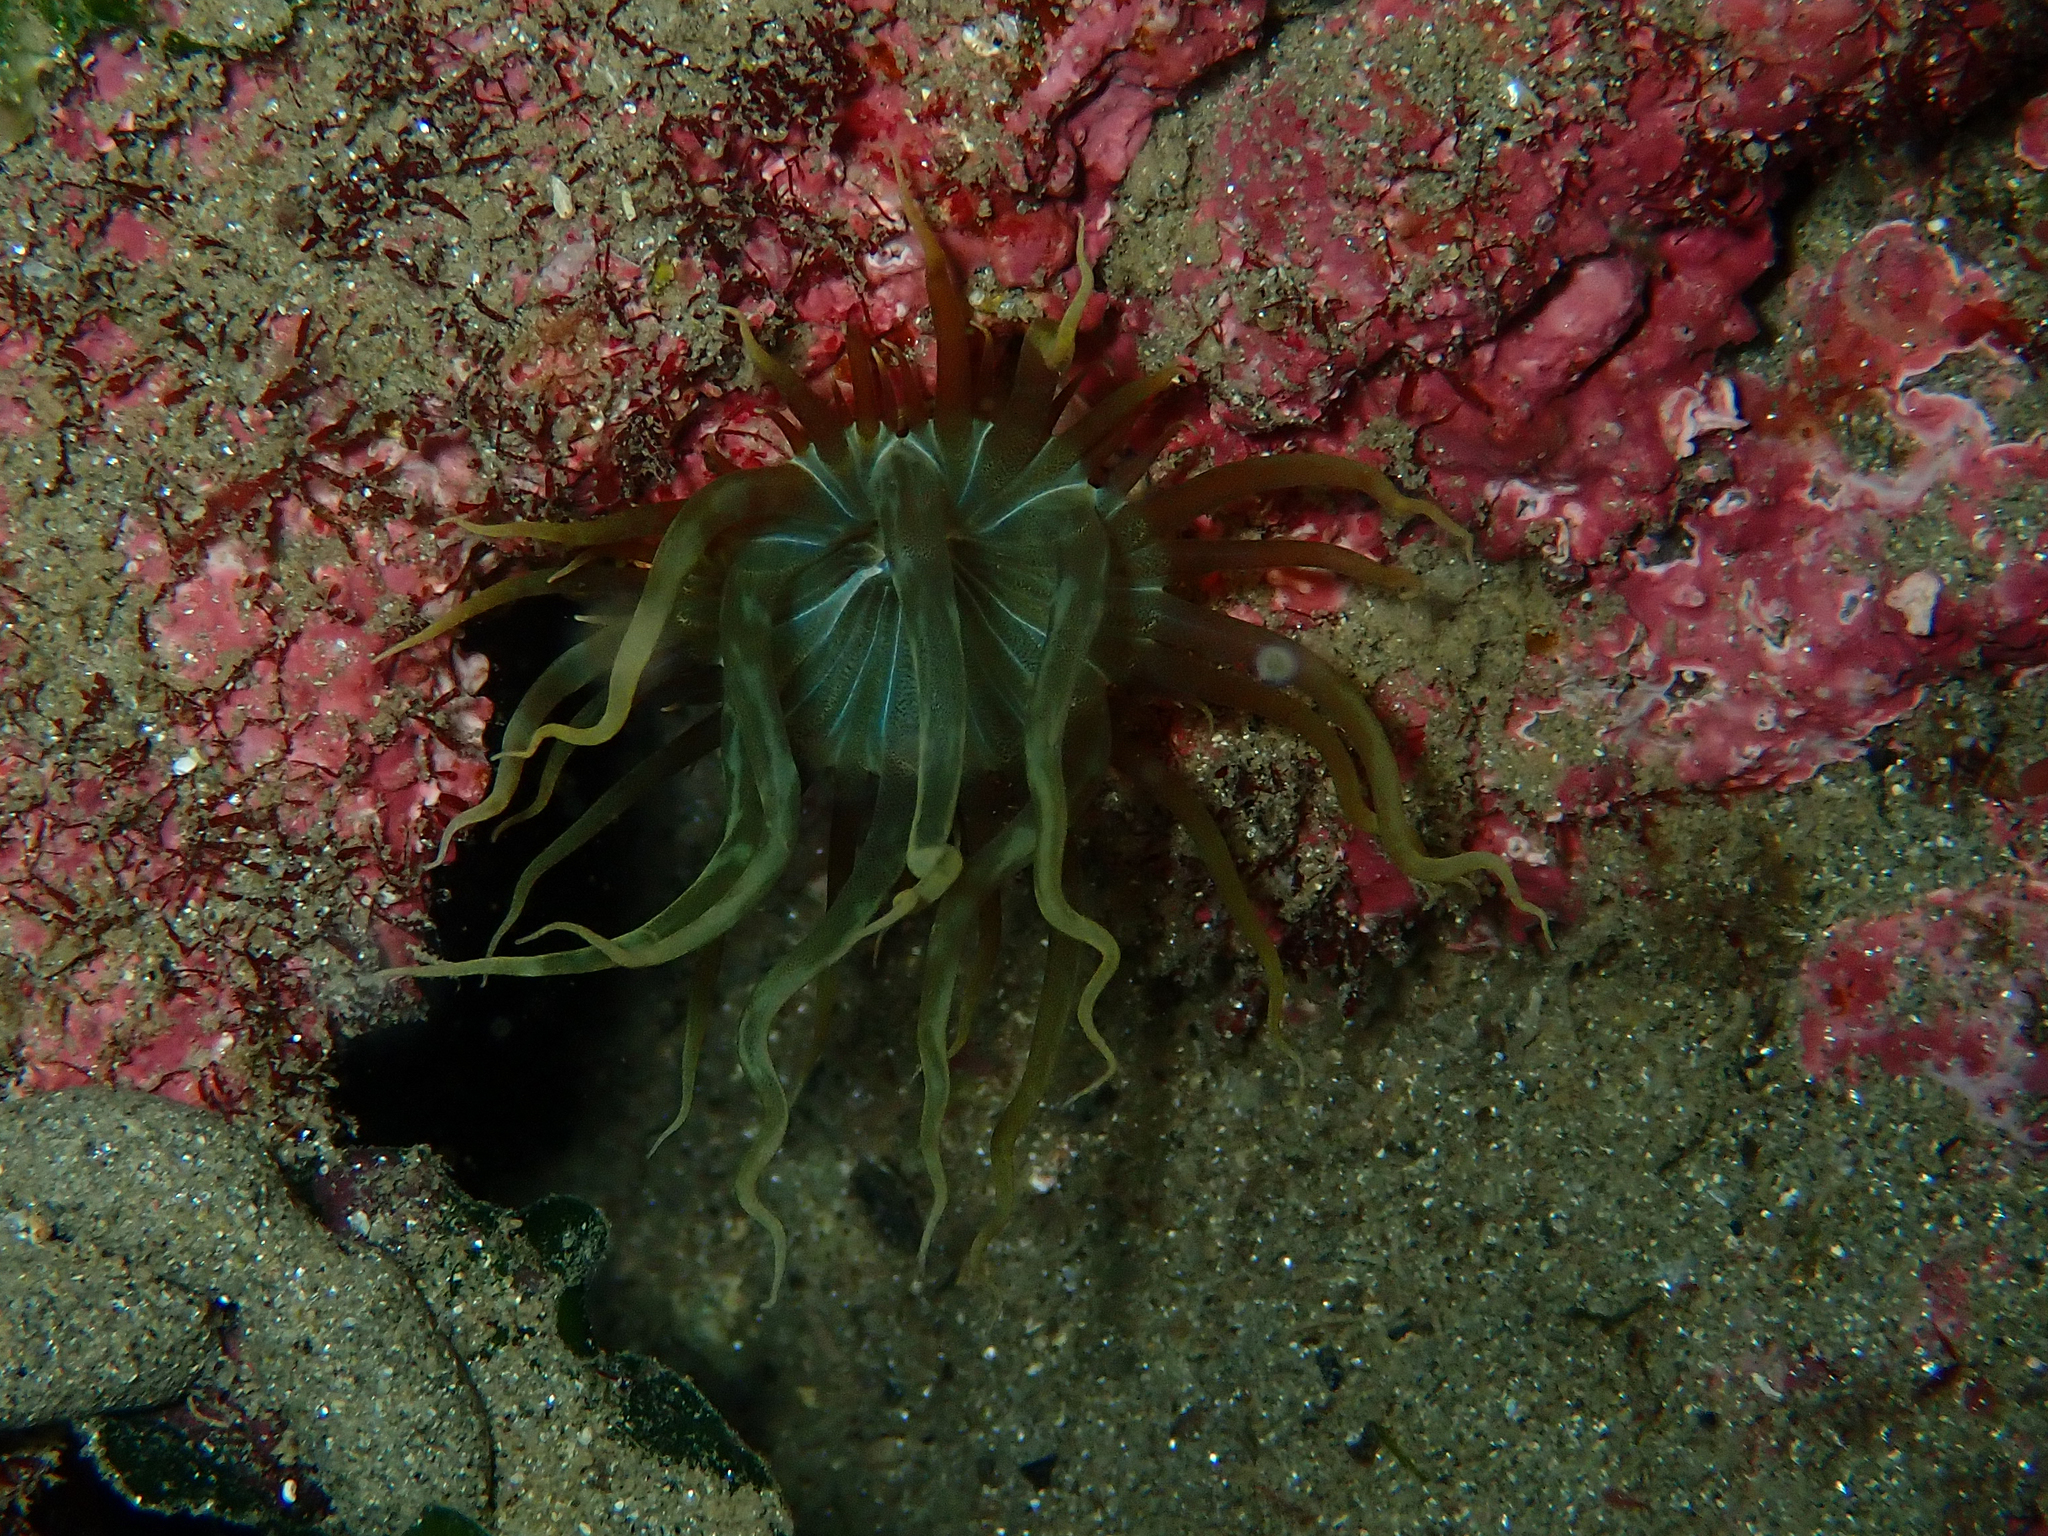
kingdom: Animalia
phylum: Cnidaria
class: Anthozoa
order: Actiniaria
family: Aiptasiidae
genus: Aiptasia
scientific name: Aiptasia couchii
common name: Trumpet anemone
